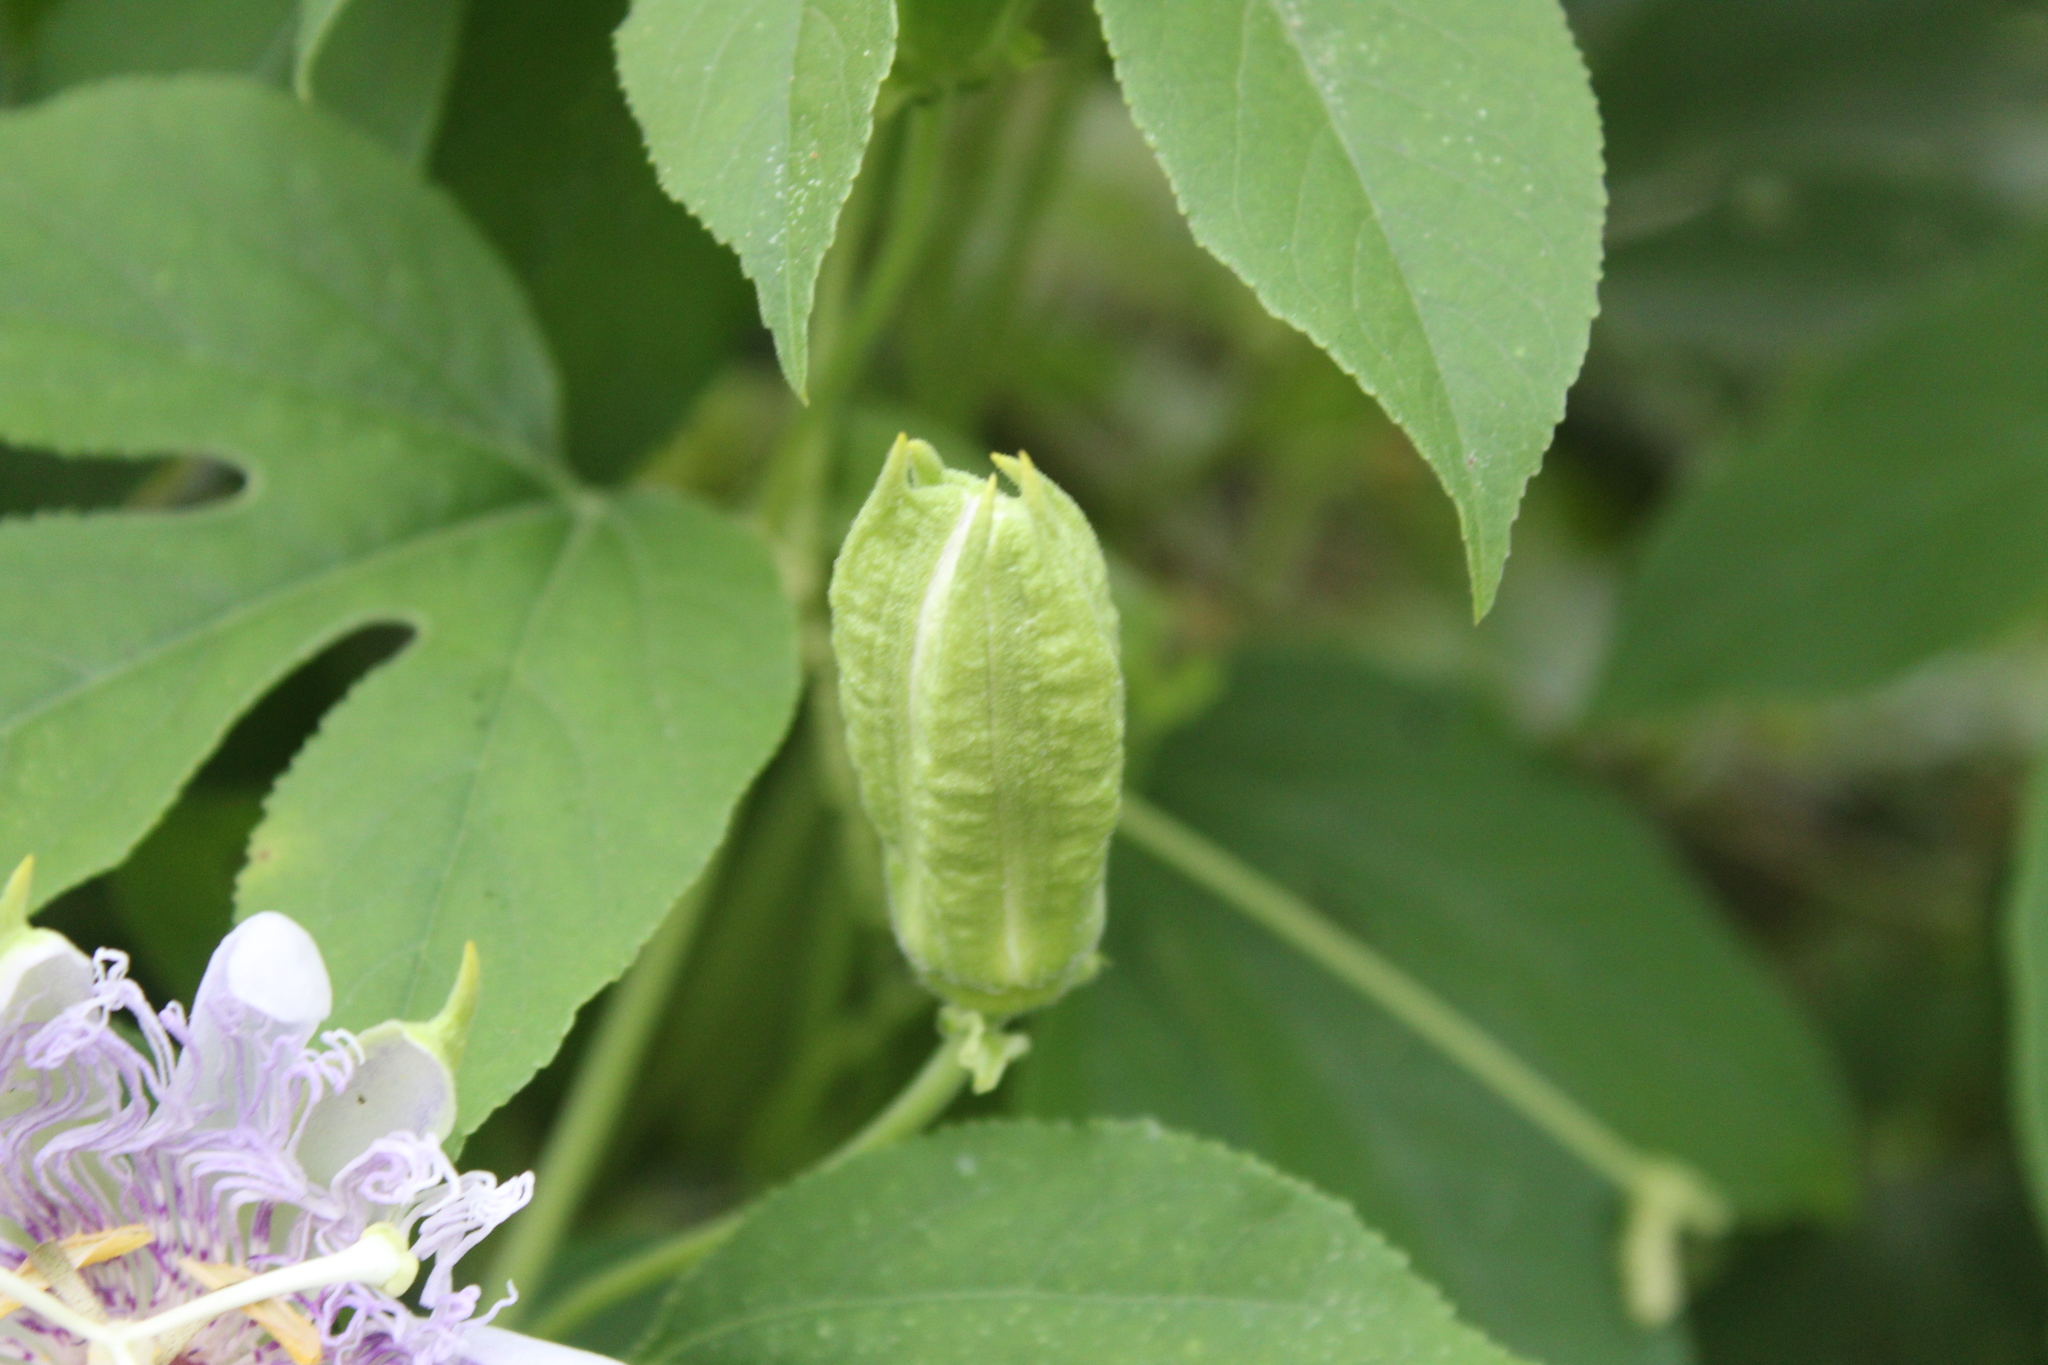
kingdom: Plantae
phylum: Tracheophyta
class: Magnoliopsida
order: Malpighiales
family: Passifloraceae
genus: Passiflora
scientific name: Passiflora incarnata
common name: Apricot-vine
